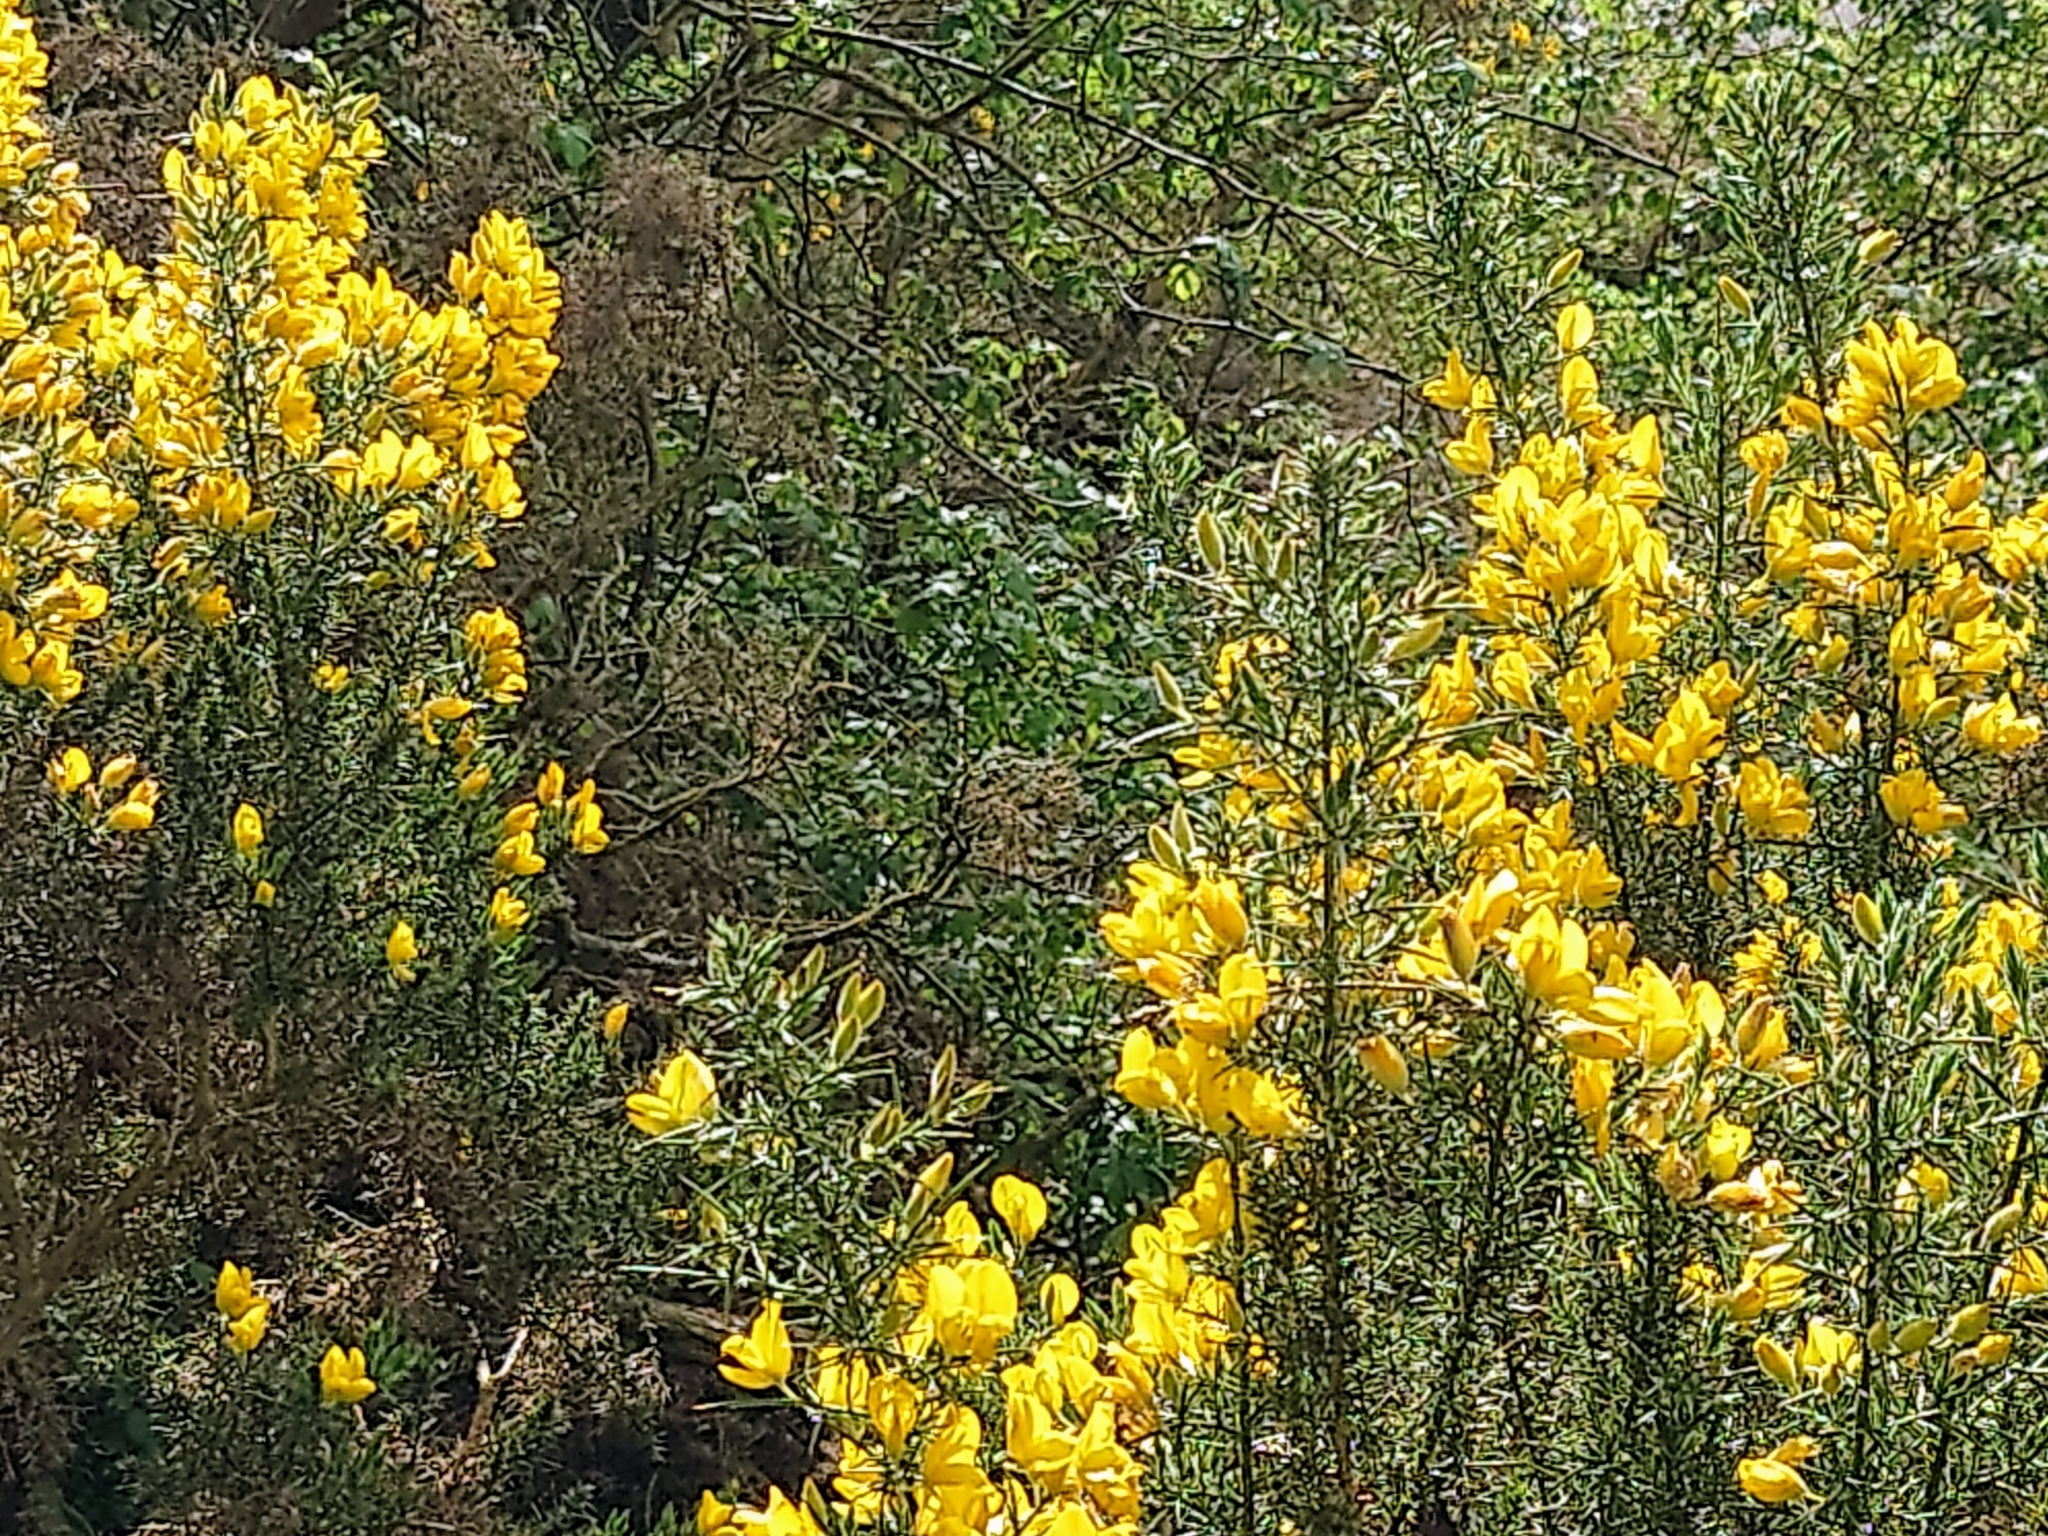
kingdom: Plantae
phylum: Tracheophyta
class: Magnoliopsida
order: Fabales
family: Fabaceae
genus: Ulex
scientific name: Ulex europaeus
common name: Common gorse
